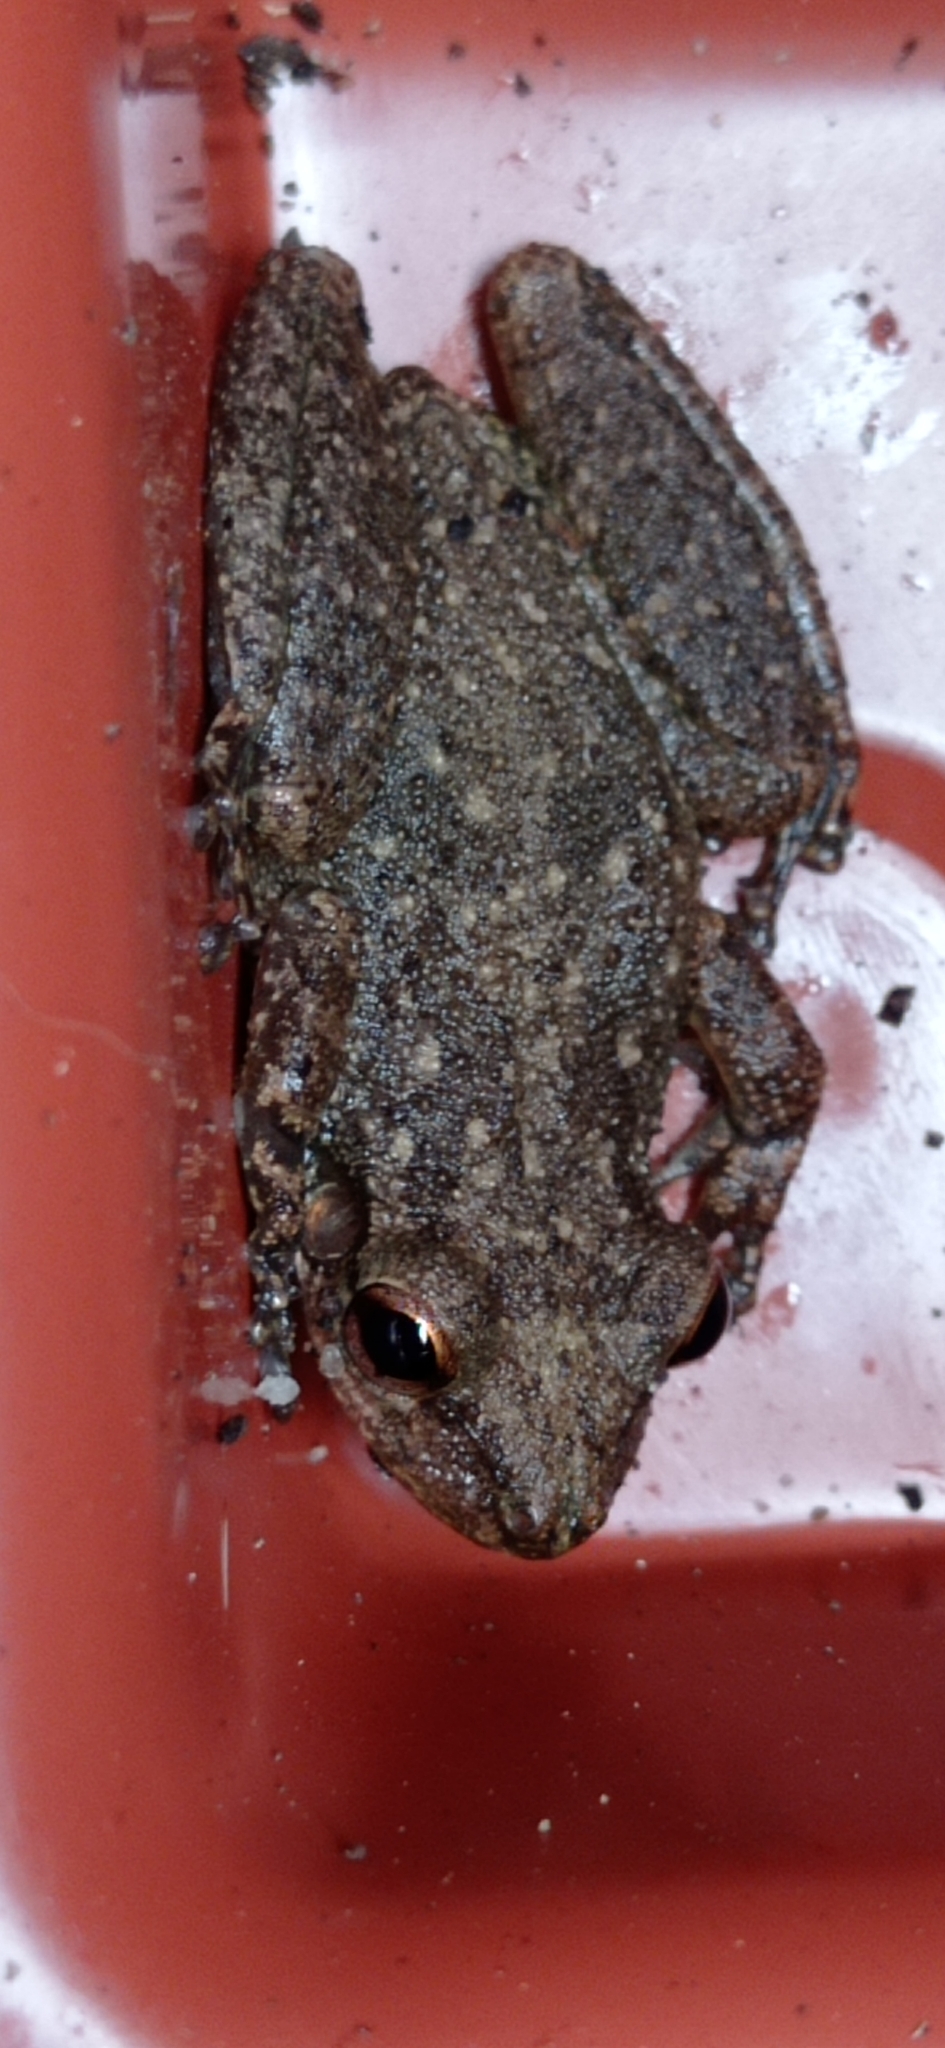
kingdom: Animalia
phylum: Chordata
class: Amphibia
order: Anura
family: Hylidae
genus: Scinax
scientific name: Scinax x-signatus
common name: Venezuela snouted treefrog
